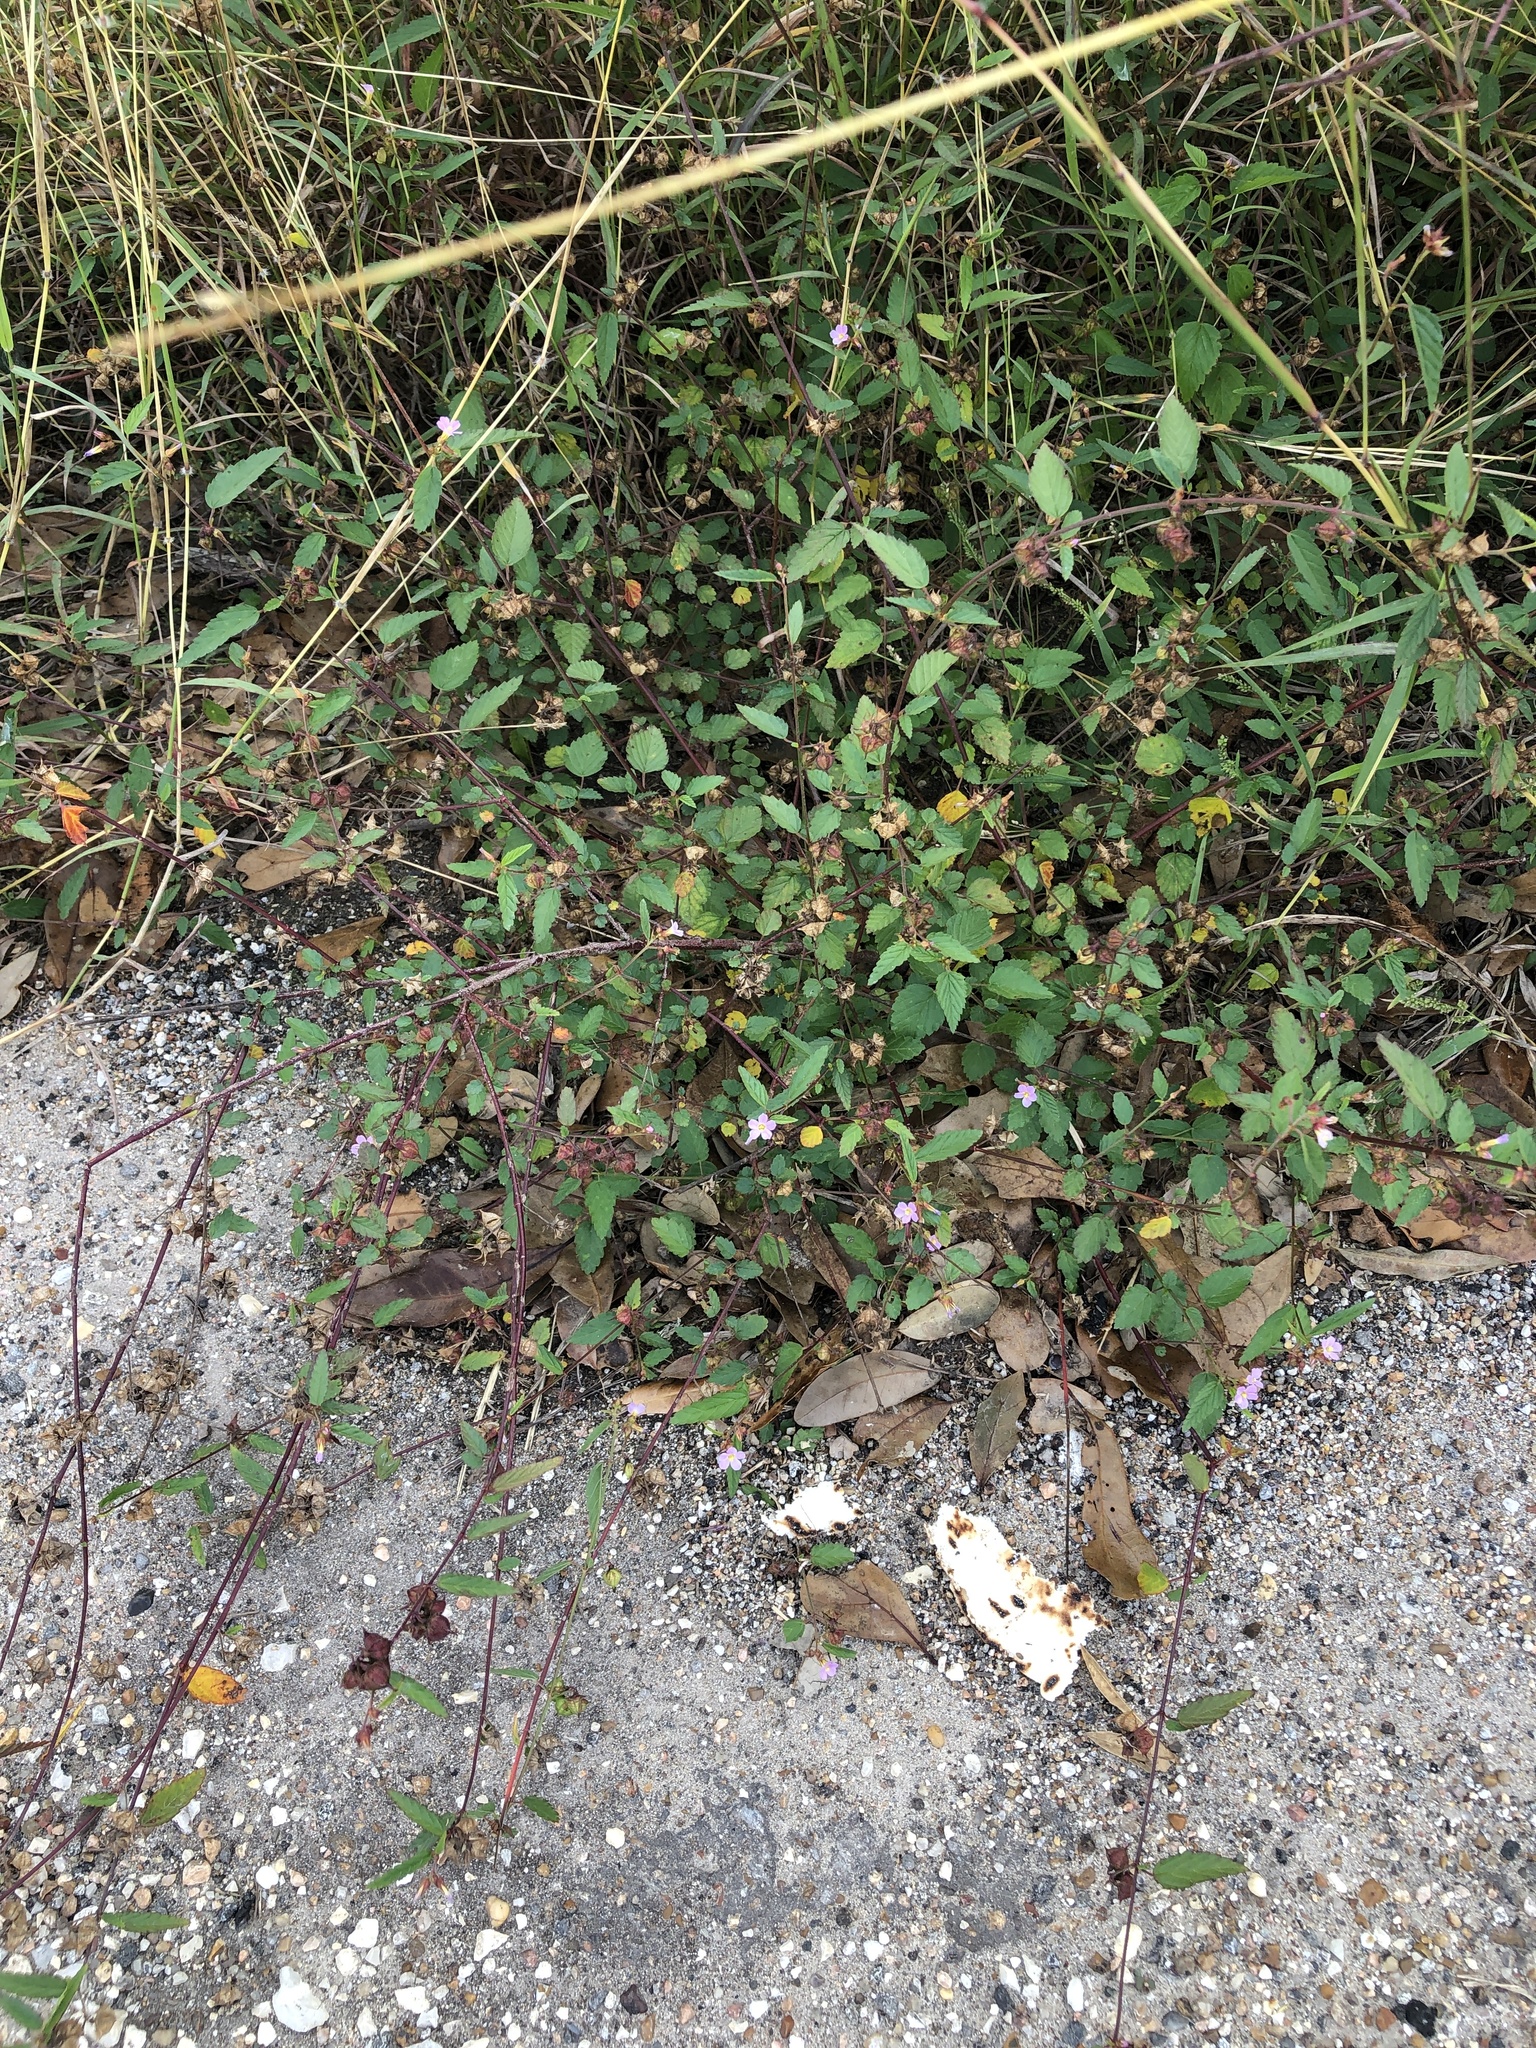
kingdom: Plantae
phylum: Tracheophyta
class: Magnoliopsida
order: Malvales
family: Malvaceae
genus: Melochia
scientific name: Melochia pyramidata
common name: Pyramidflower
